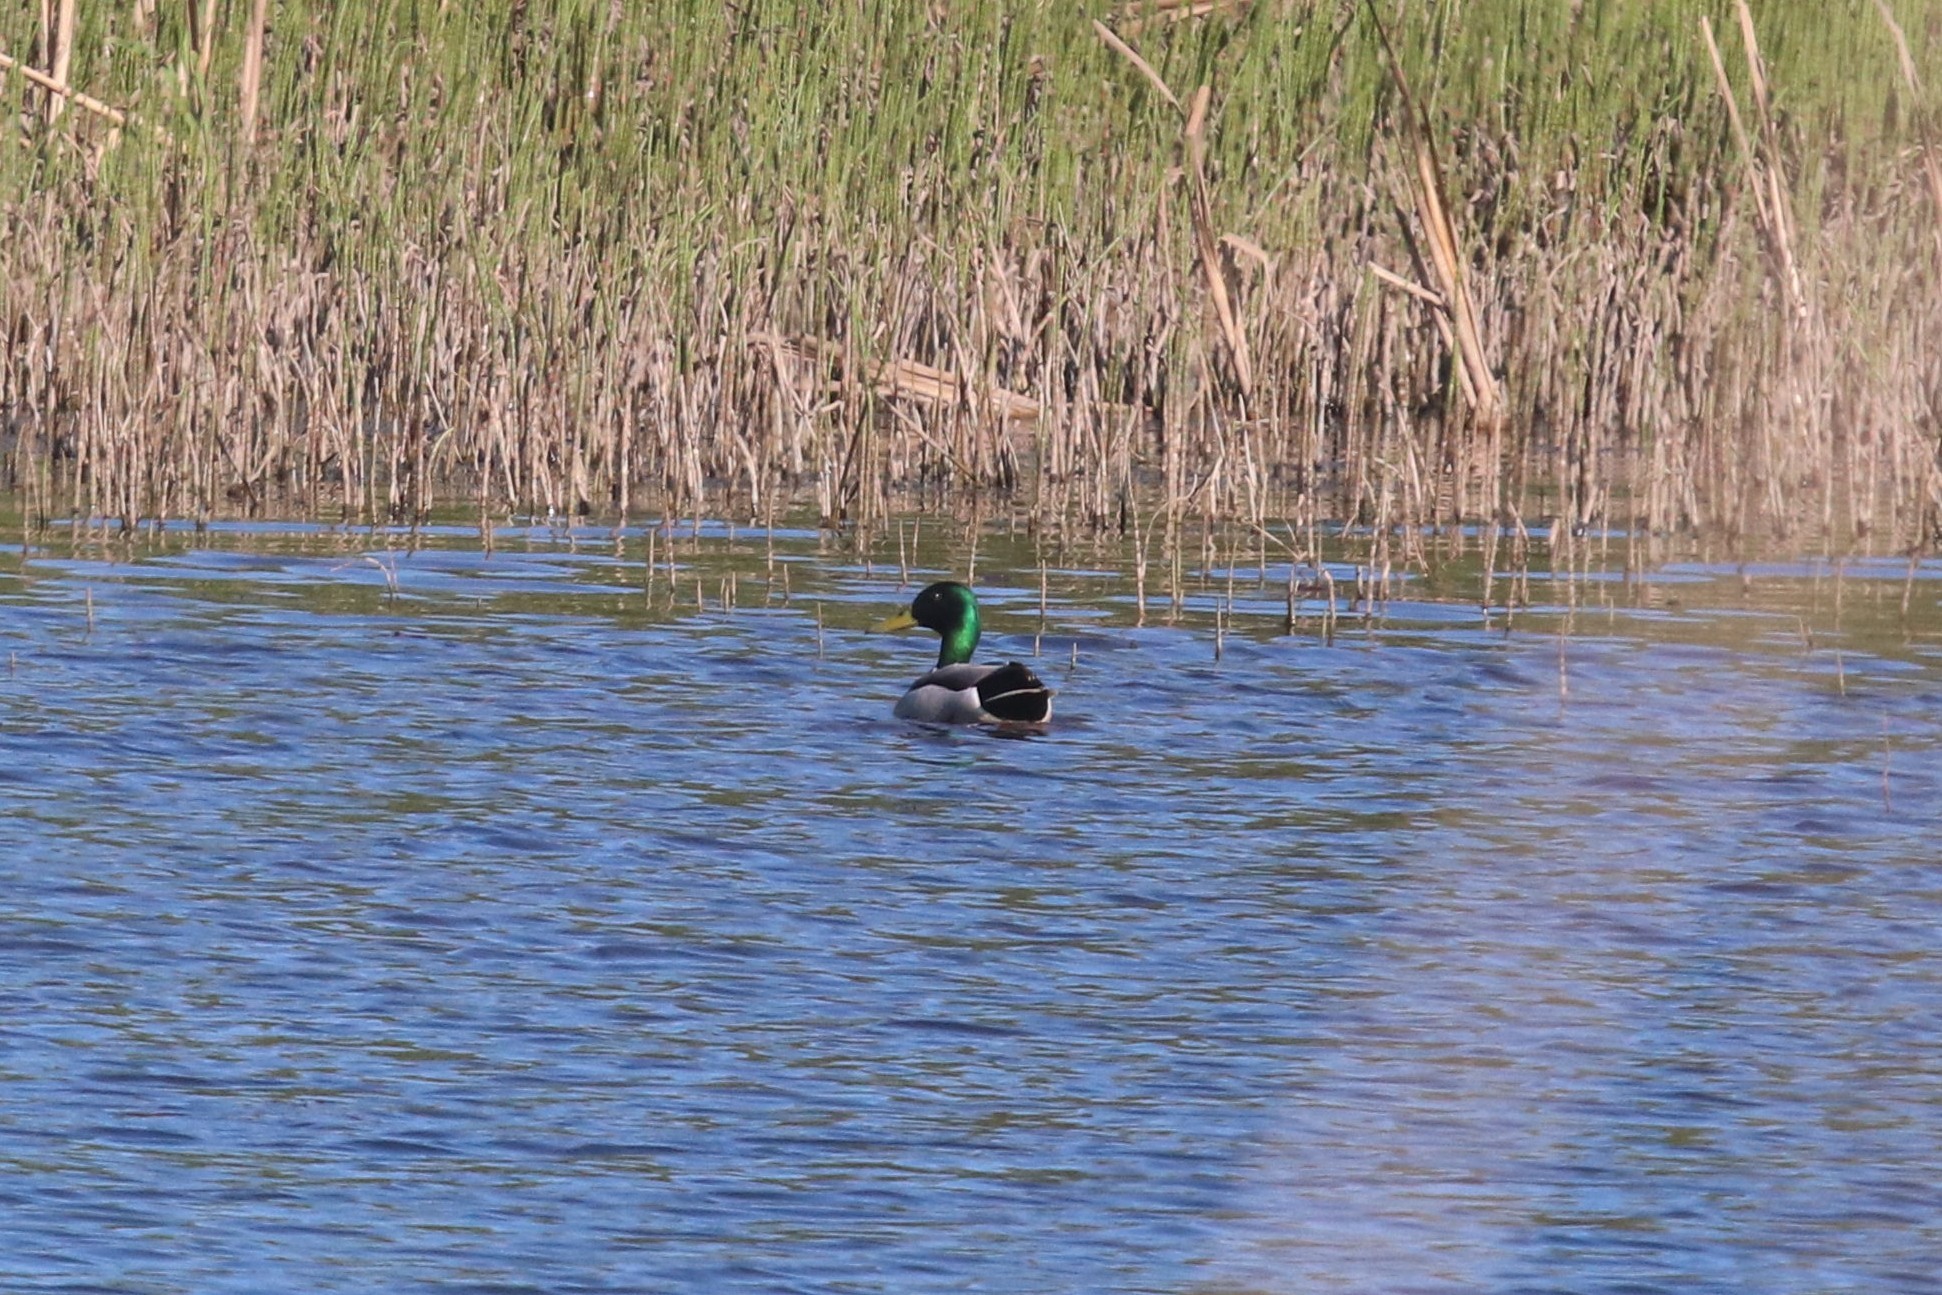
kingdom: Animalia
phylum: Chordata
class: Aves
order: Anseriformes
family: Anatidae
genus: Anas
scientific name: Anas platyrhynchos
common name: Mallard
